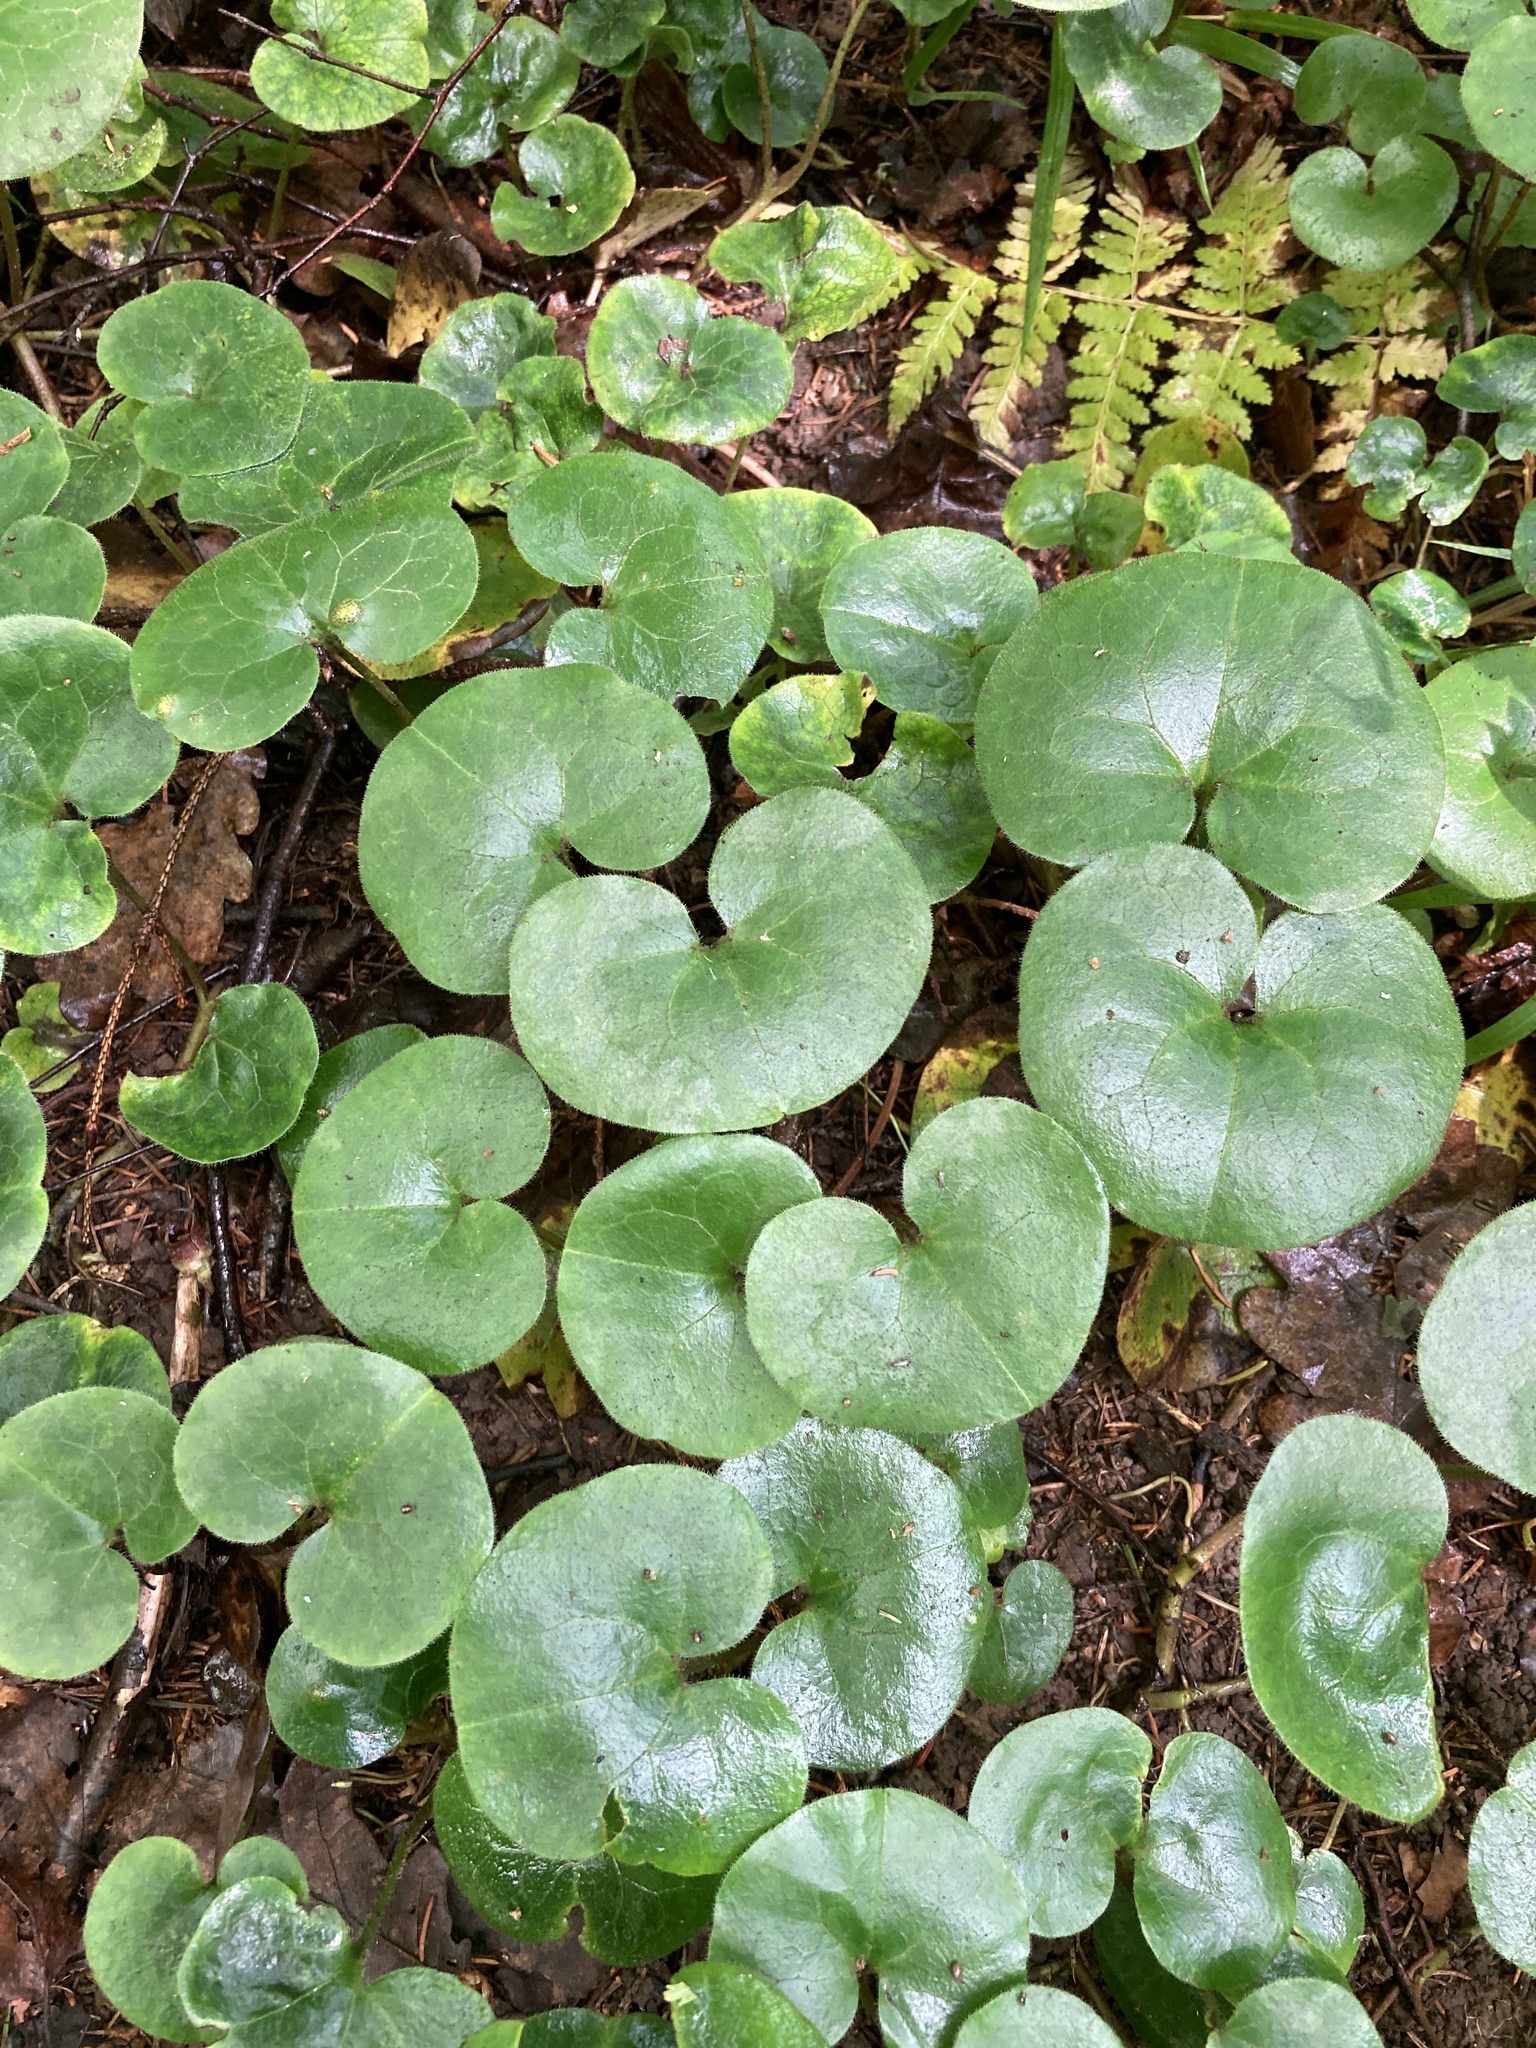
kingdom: Plantae
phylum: Tracheophyta
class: Magnoliopsida
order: Piperales
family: Aristolochiaceae
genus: Asarum
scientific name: Asarum europaeum
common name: Asarabacca
